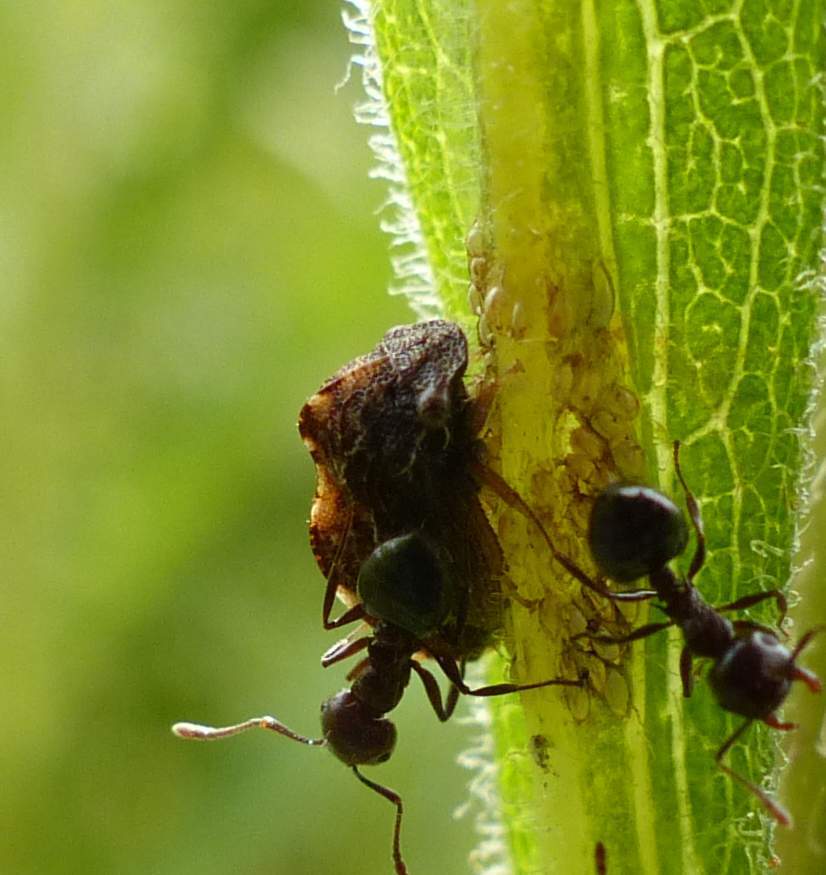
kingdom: Animalia
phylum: Arthropoda
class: Insecta
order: Hemiptera
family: Membracidae
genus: Publilia
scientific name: Publilia concava
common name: Aster treehopper
